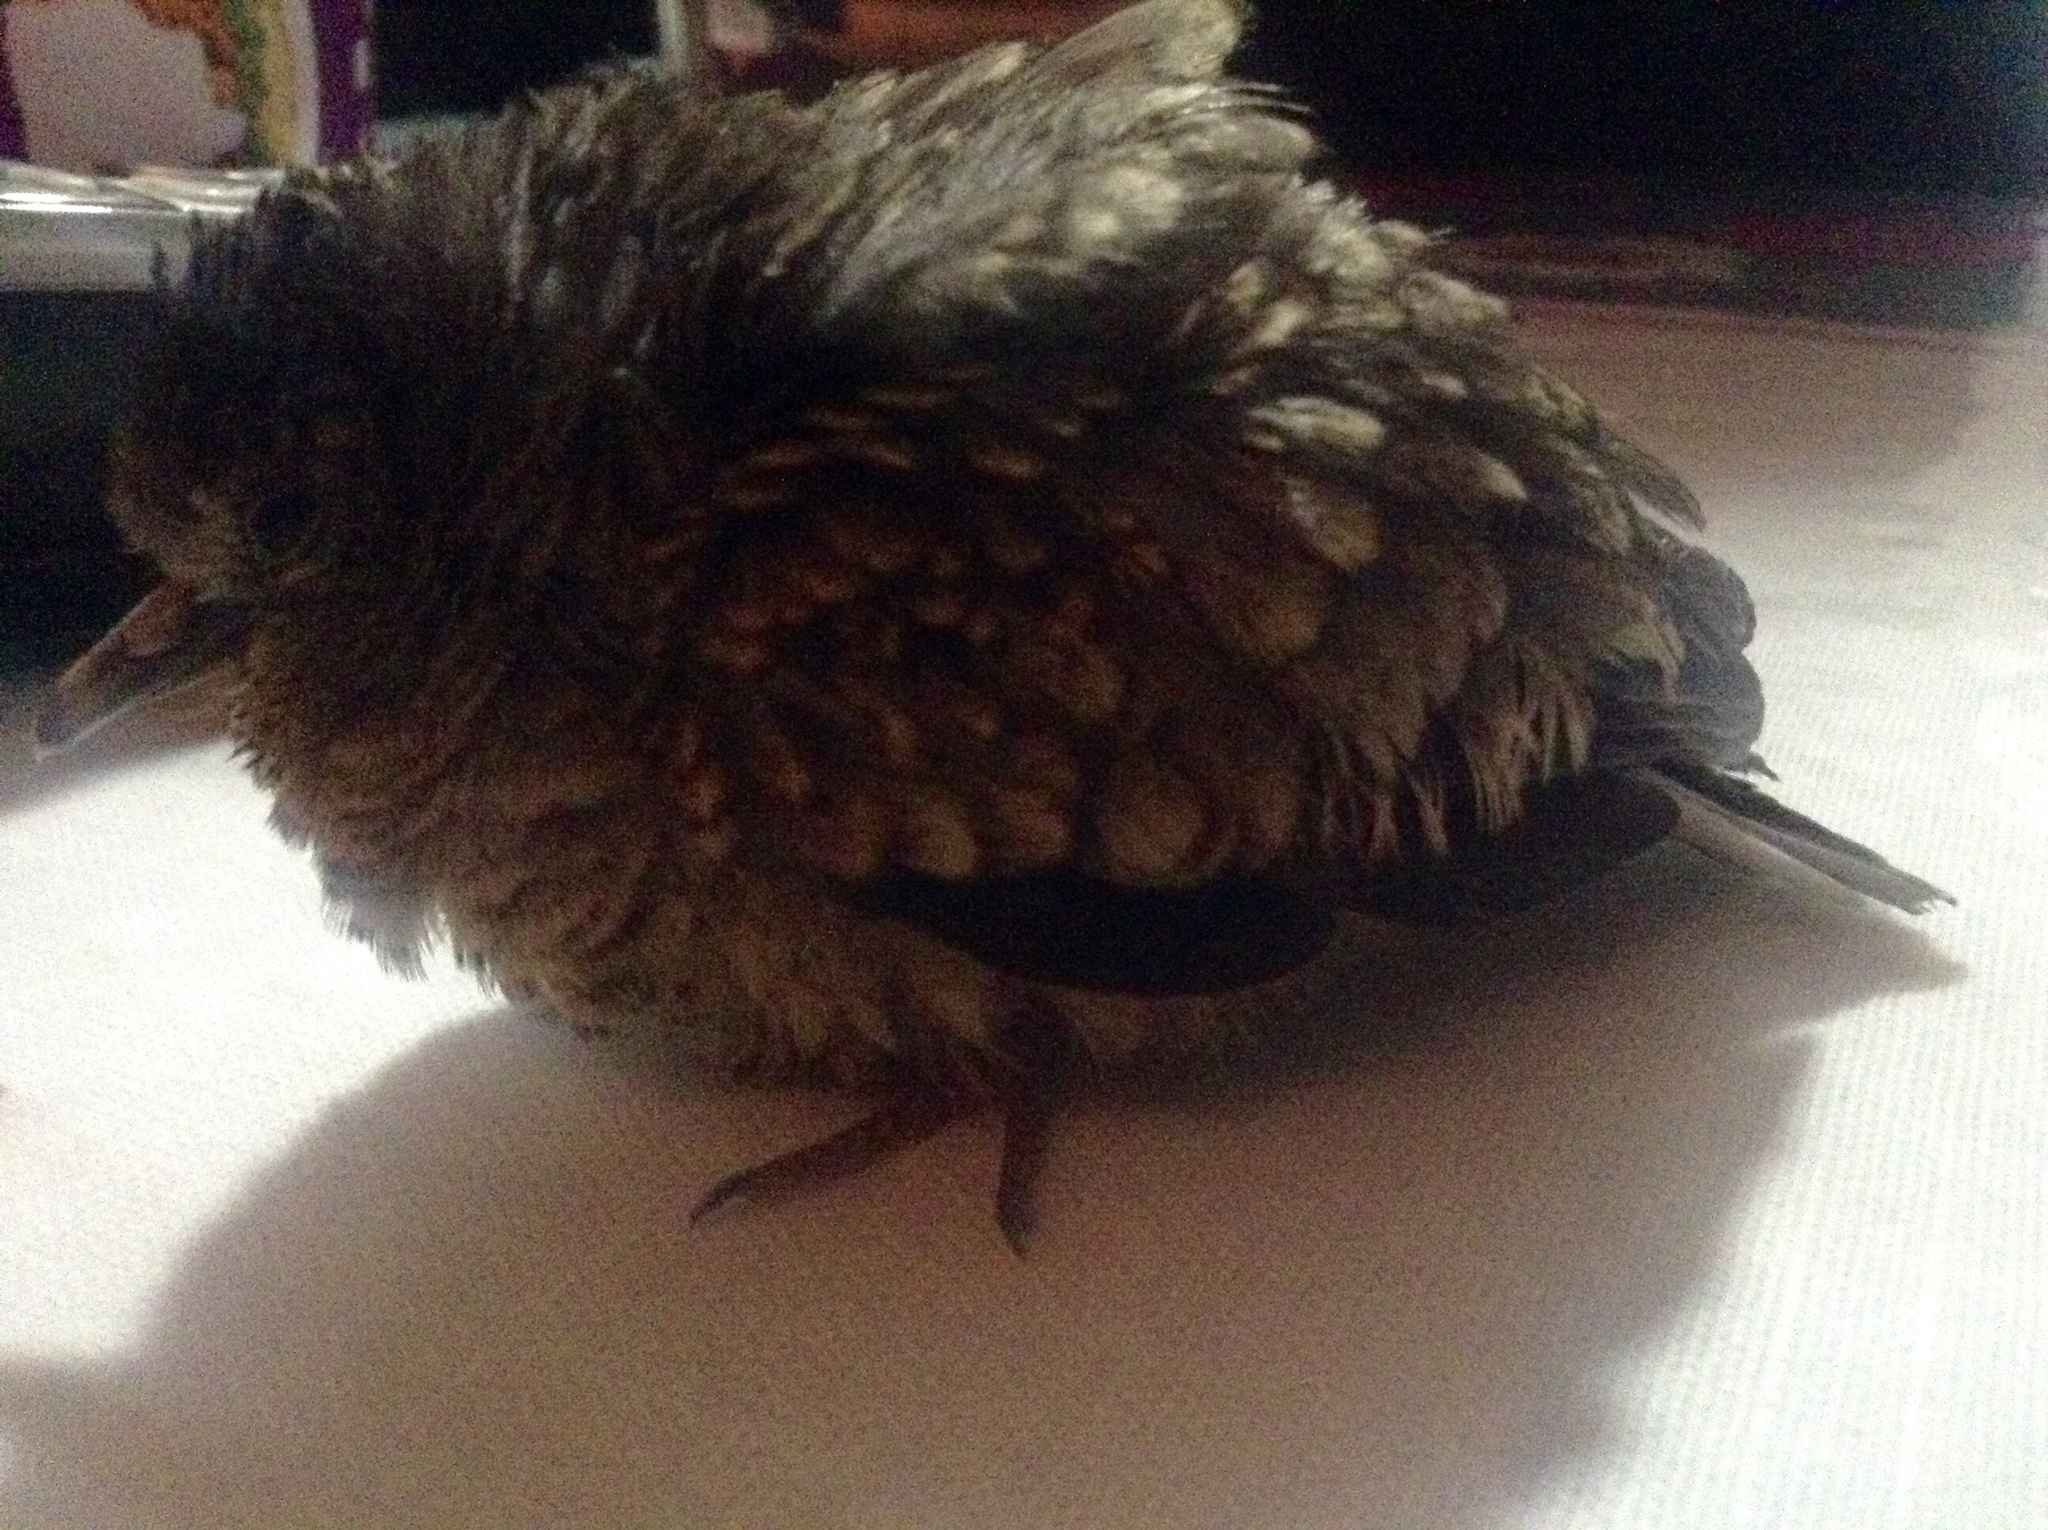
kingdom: Animalia
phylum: Chordata
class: Aves
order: Columbiformes
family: Columbidae
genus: Columbina
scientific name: Columbina inca
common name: Inca dove
